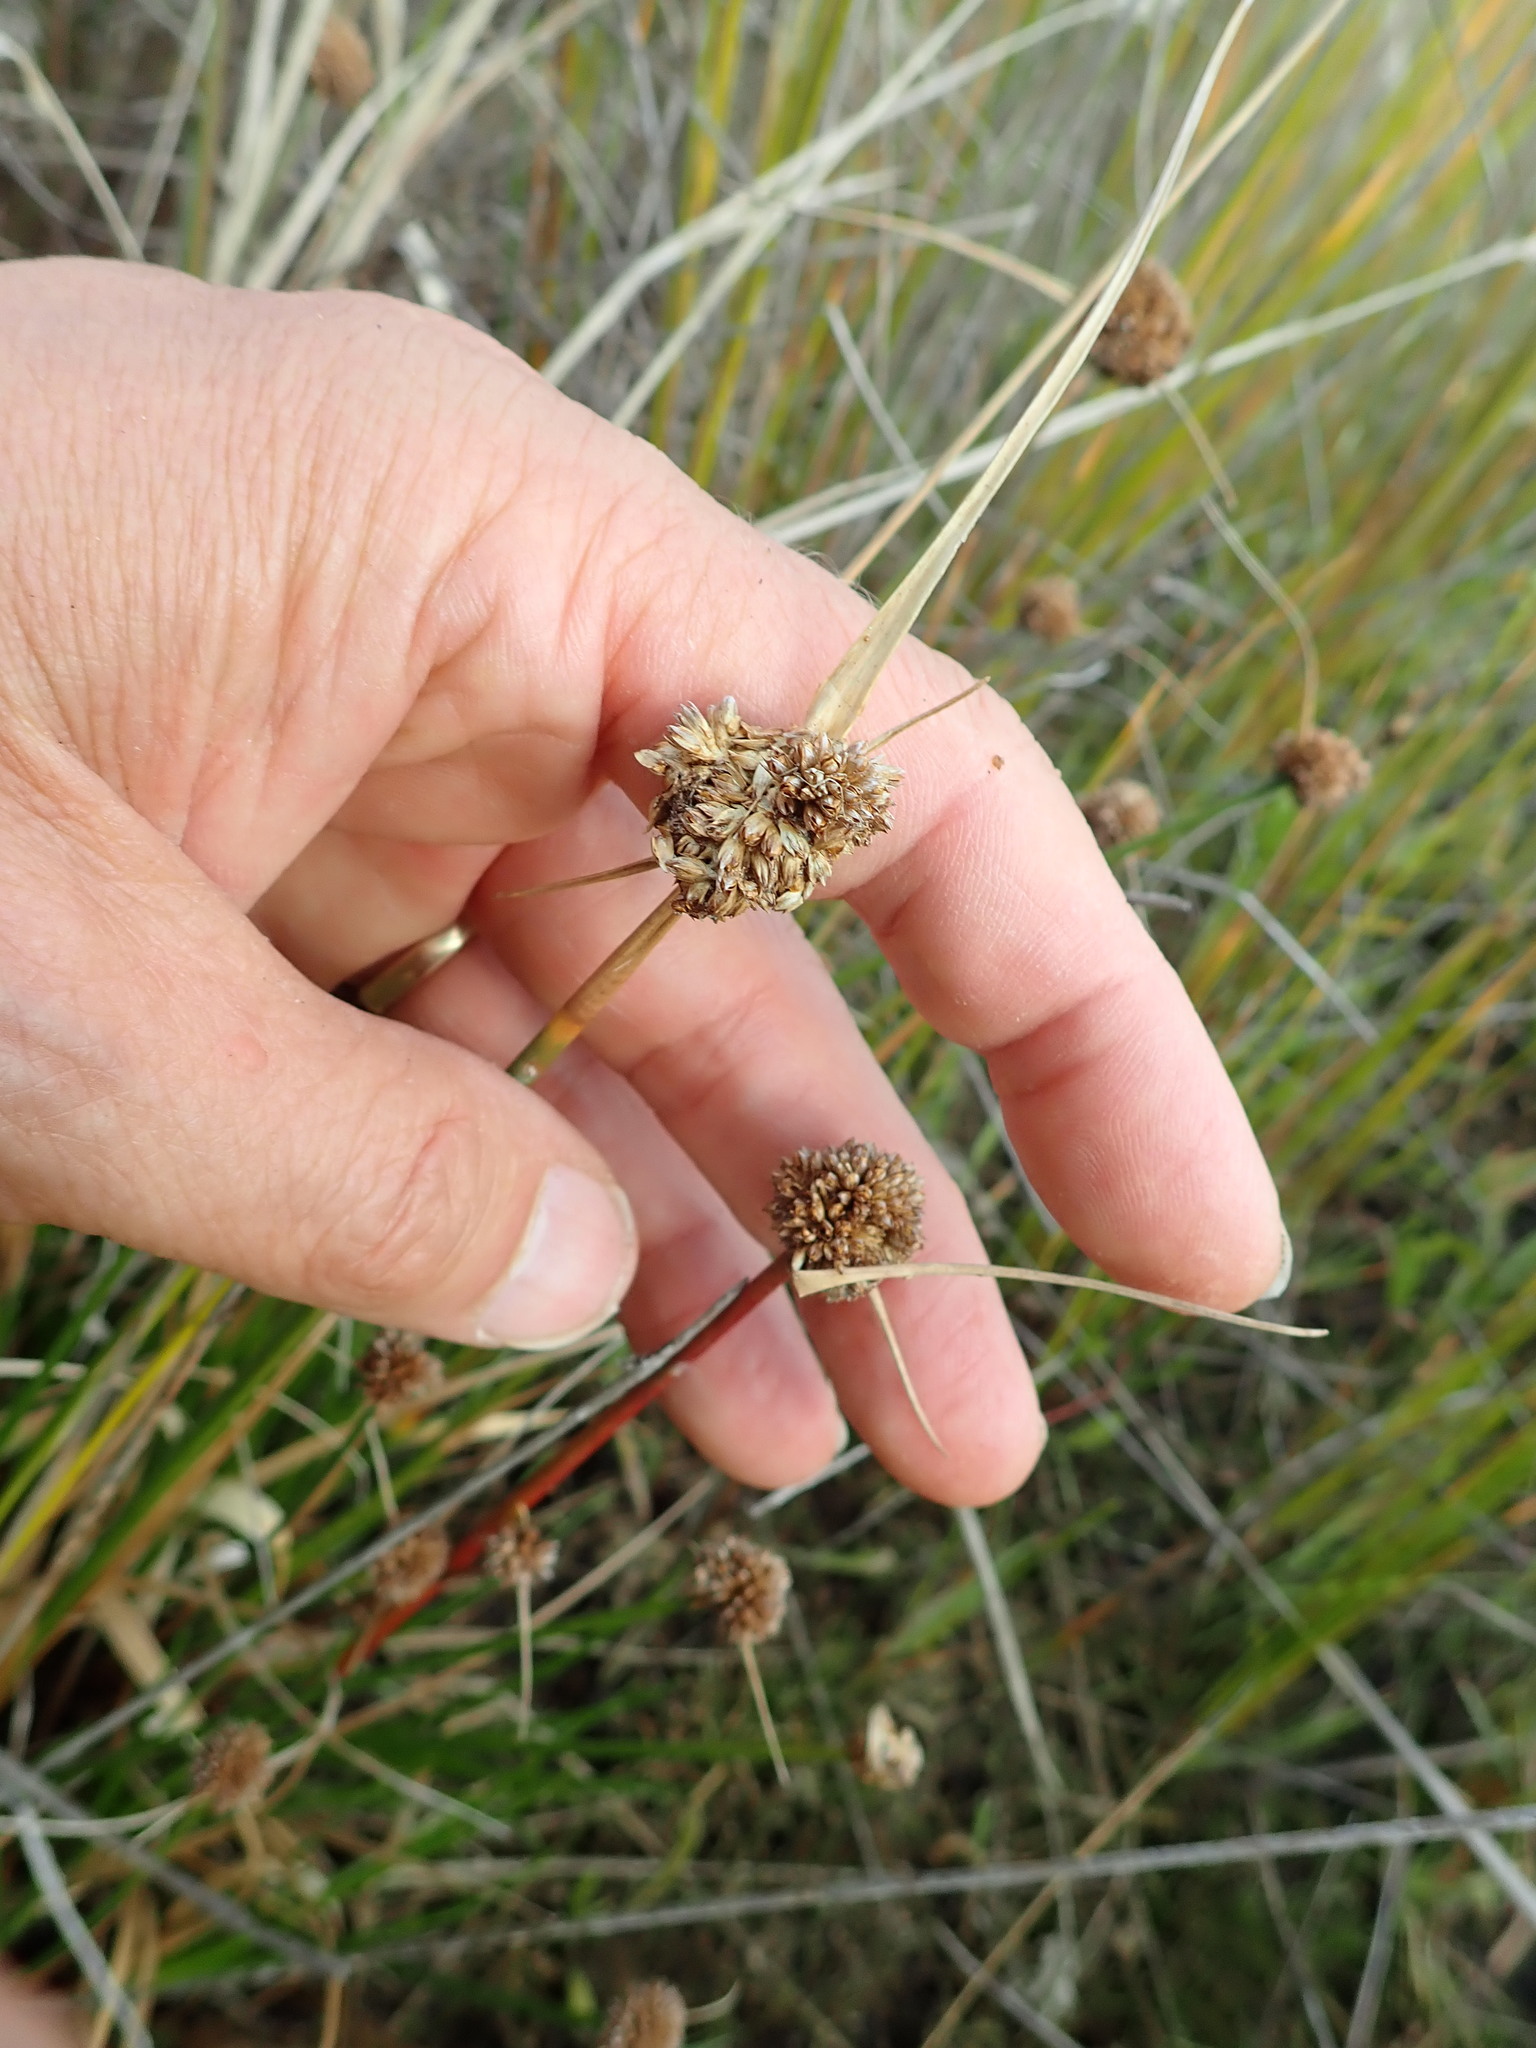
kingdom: Plantae
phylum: Tracheophyta
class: Liliopsida
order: Poales
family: Juncaceae
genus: Juncus
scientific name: Juncus caespiticius
